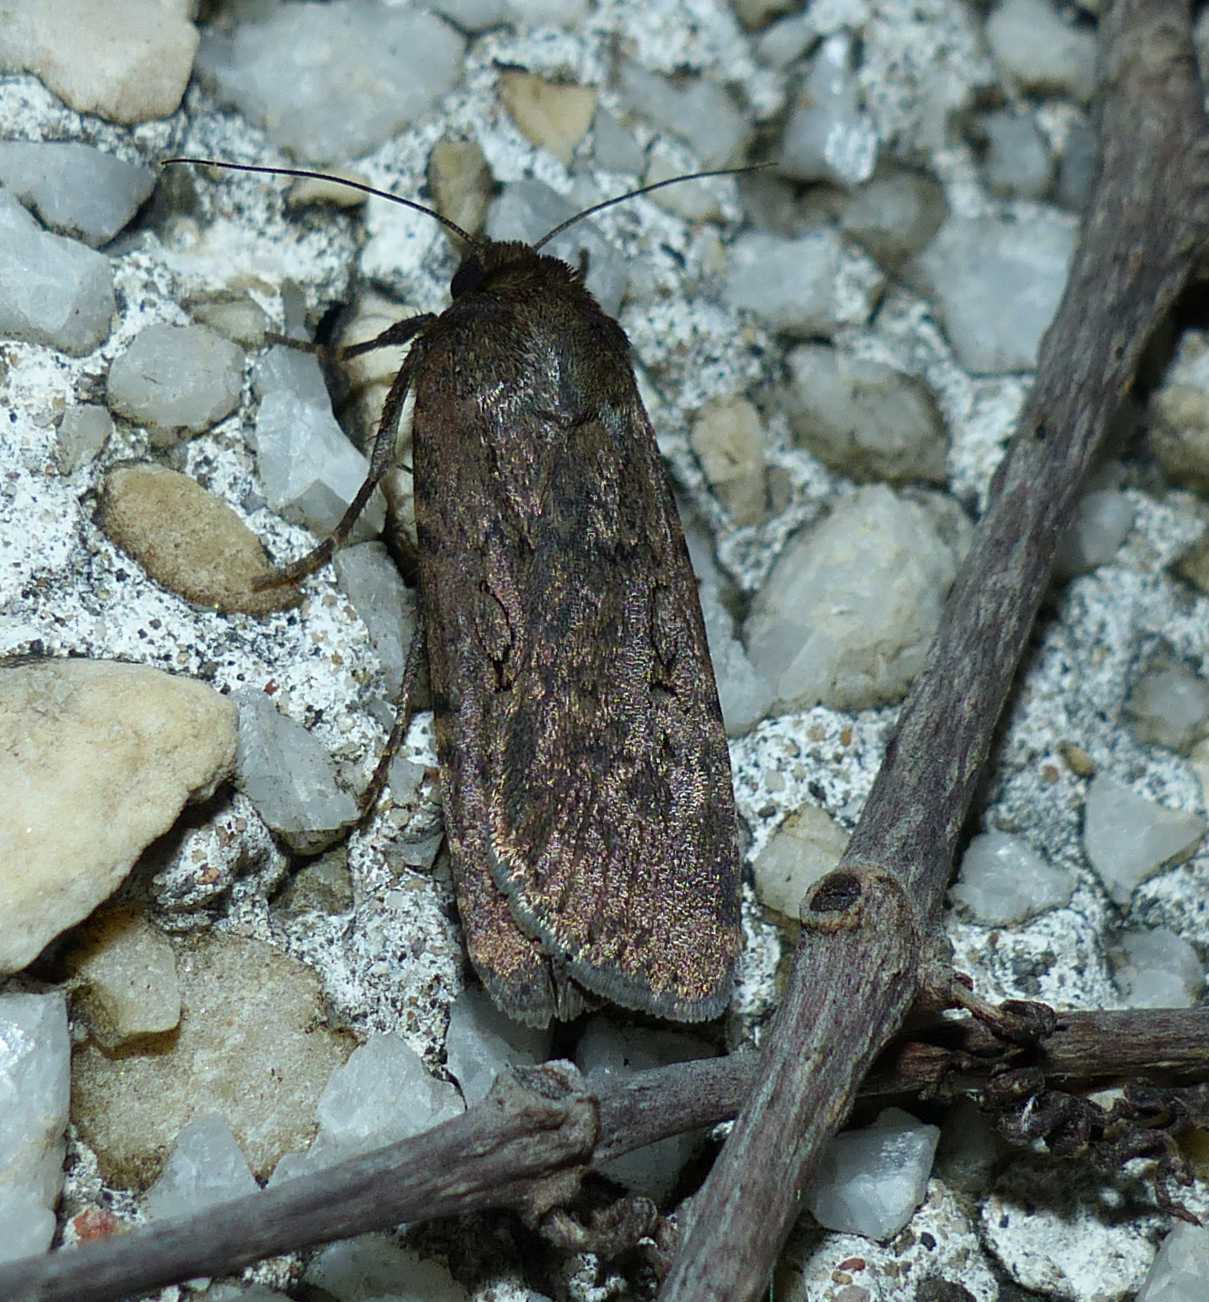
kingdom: Animalia
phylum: Arthropoda
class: Insecta
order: Lepidoptera
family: Noctuidae
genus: Spaelotis
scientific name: Spaelotis clandestina
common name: Clandestine dart
